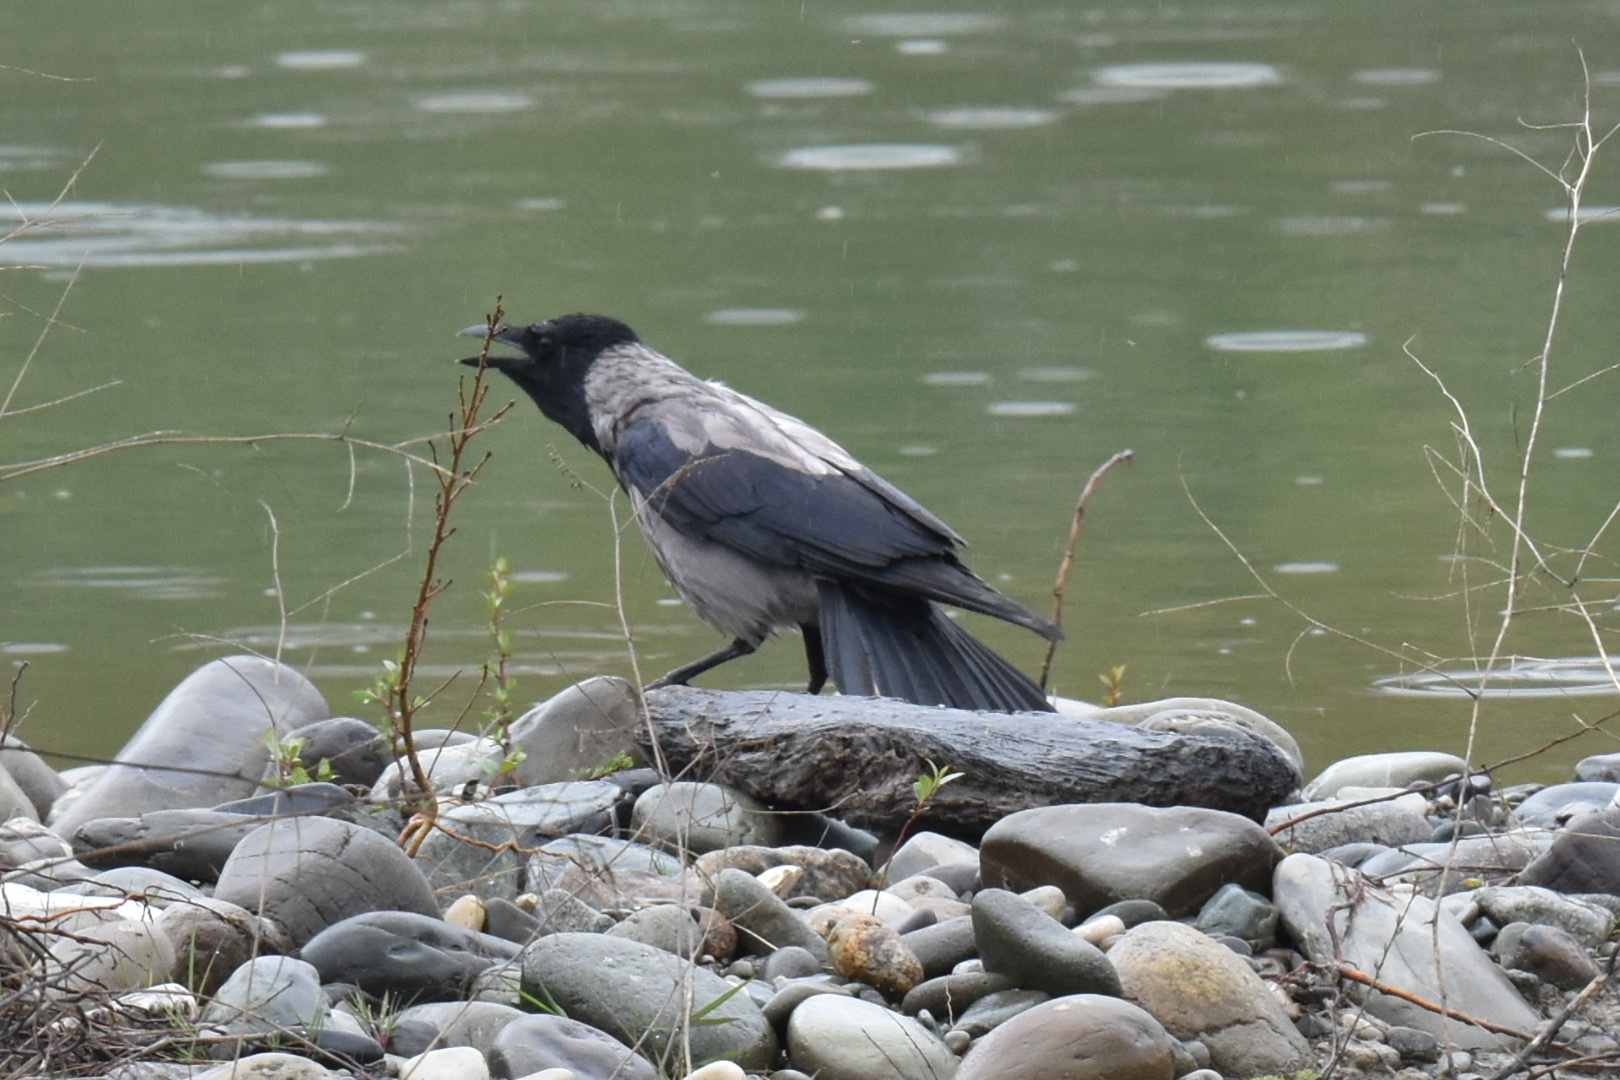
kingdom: Animalia
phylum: Chordata
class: Aves
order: Passeriformes
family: Corvidae
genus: Corvus
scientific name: Corvus cornix
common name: Hooded crow
